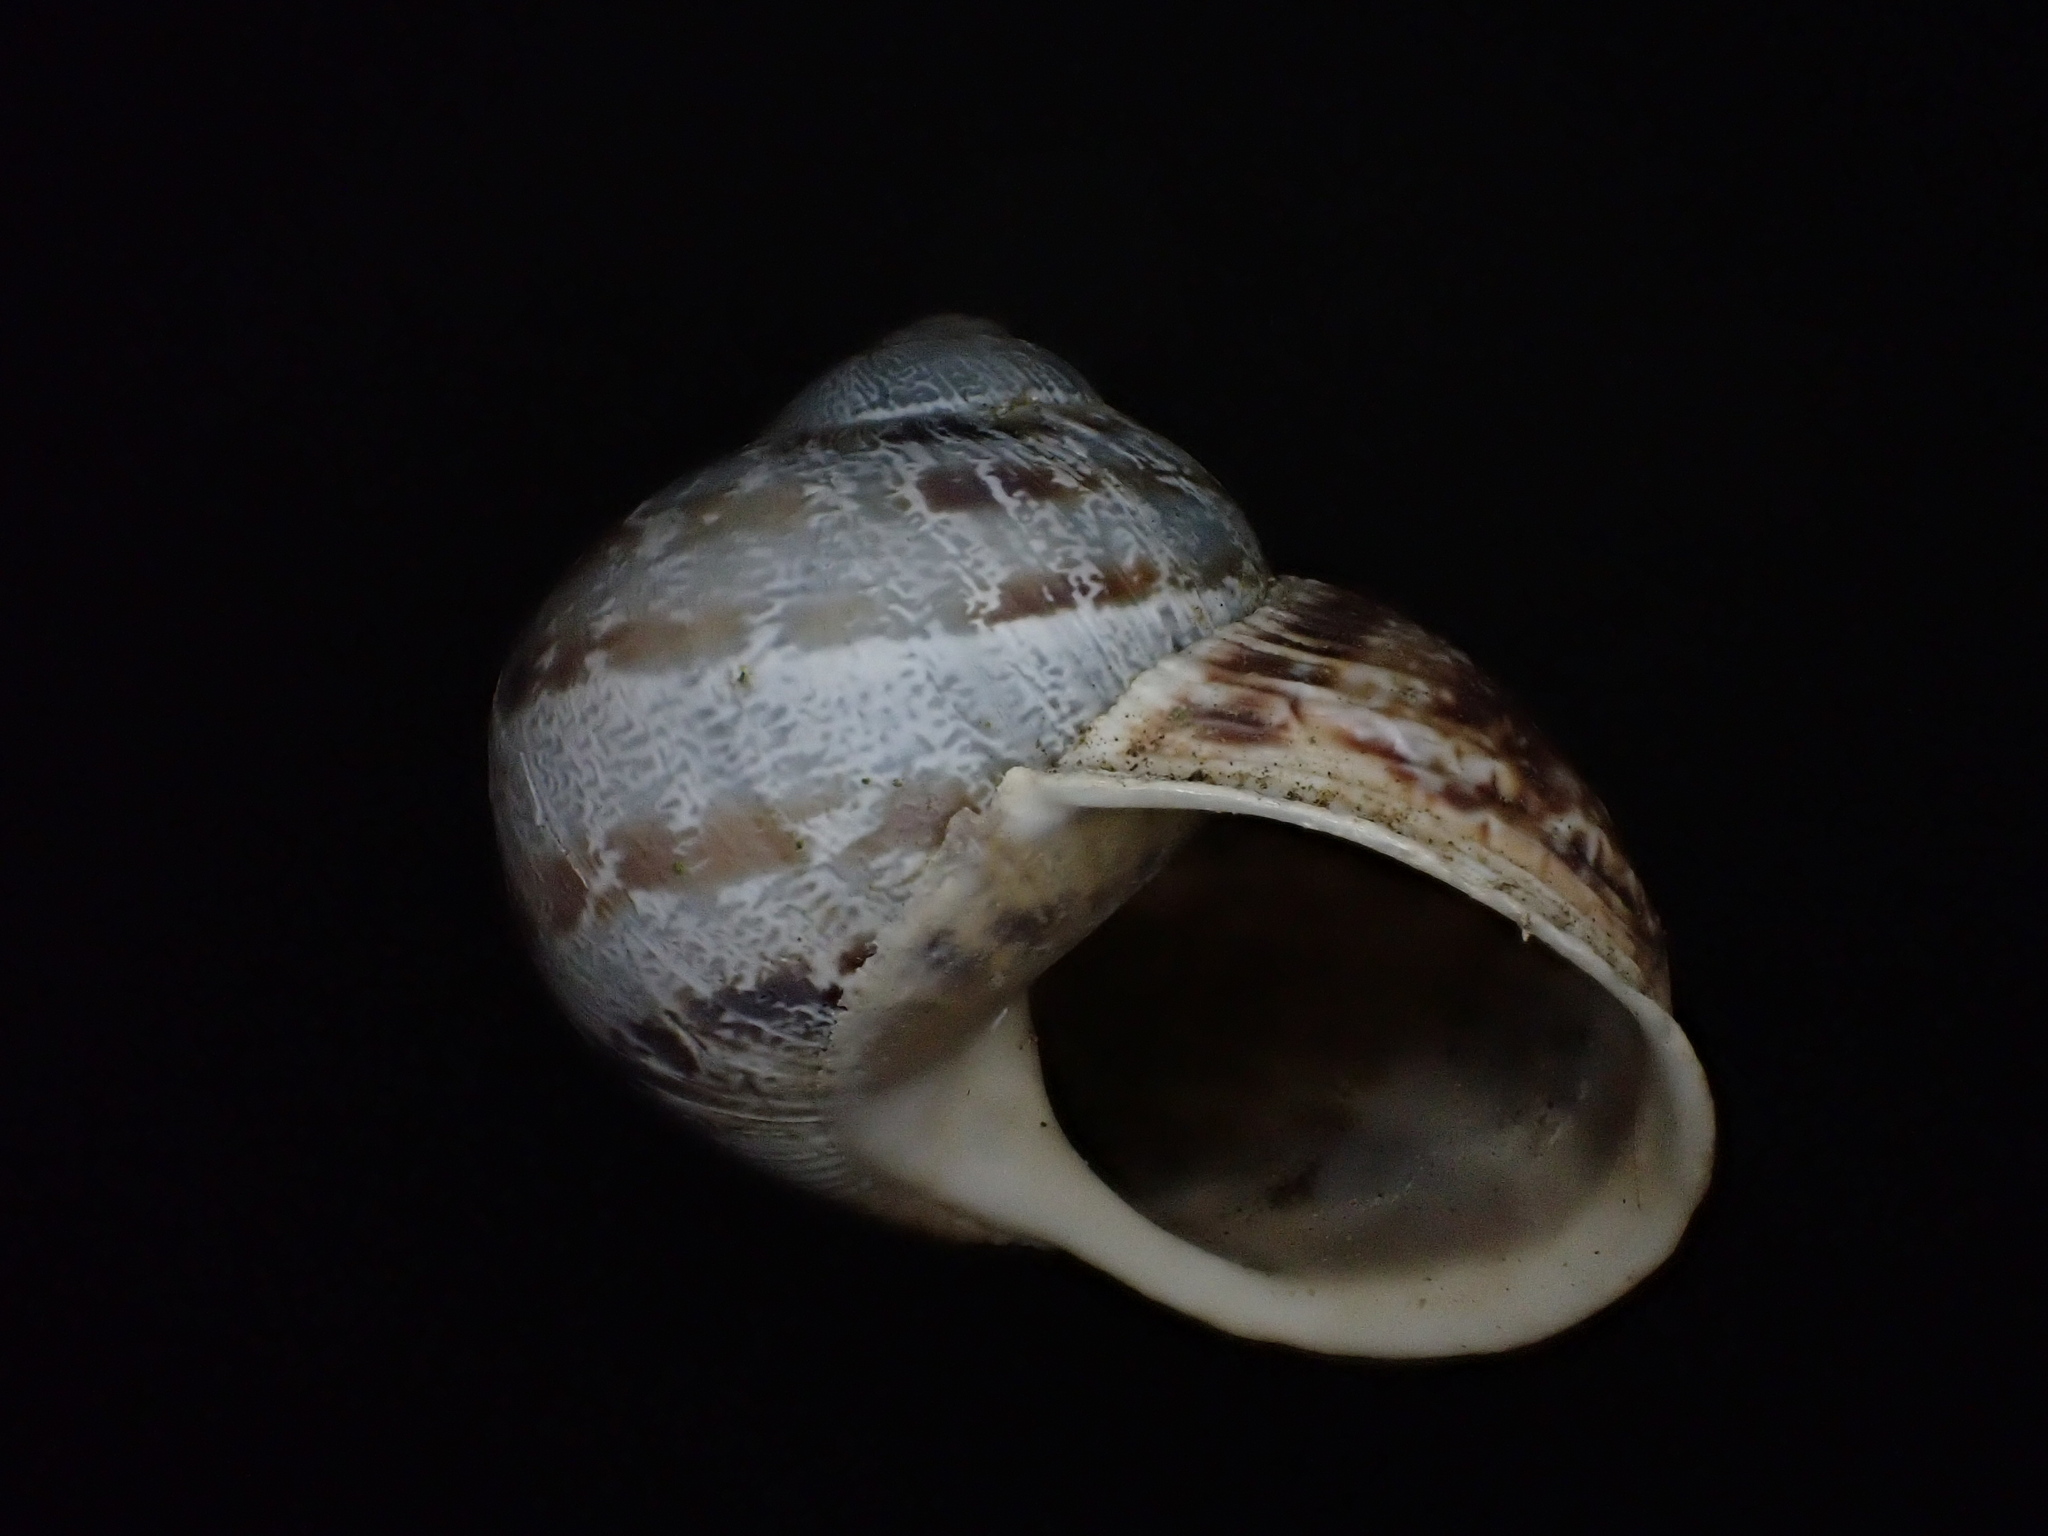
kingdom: Animalia
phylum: Mollusca
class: Gastropoda
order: Stylommatophora
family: Helicidae
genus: Cornu
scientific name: Cornu aspersum
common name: Brown garden snail
